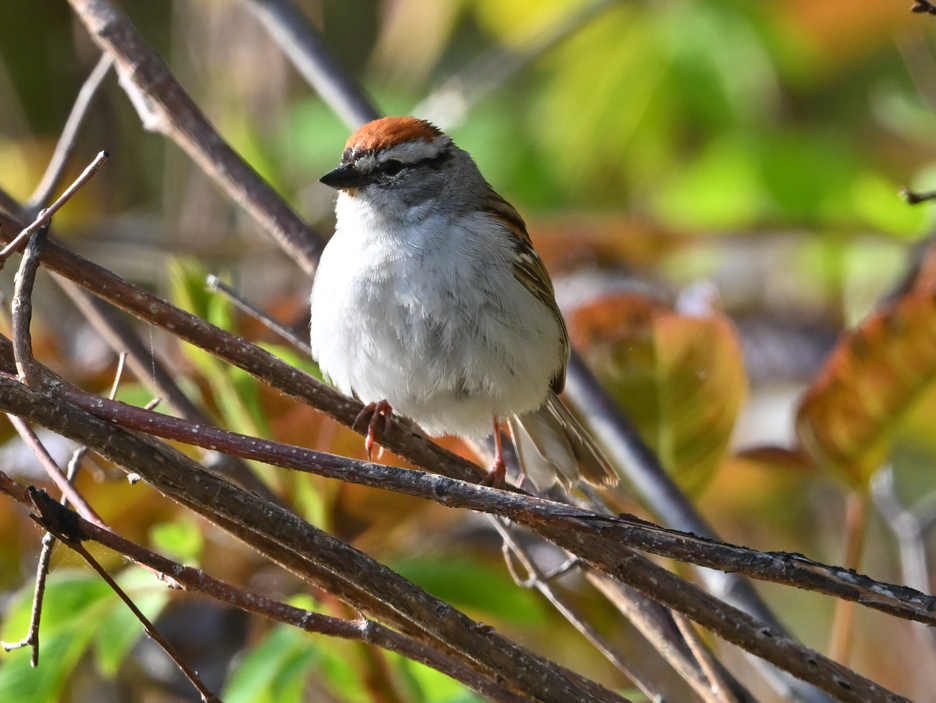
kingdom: Animalia
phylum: Chordata
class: Aves
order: Passeriformes
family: Passerellidae
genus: Spizella
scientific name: Spizella passerina
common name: Chipping sparrow
